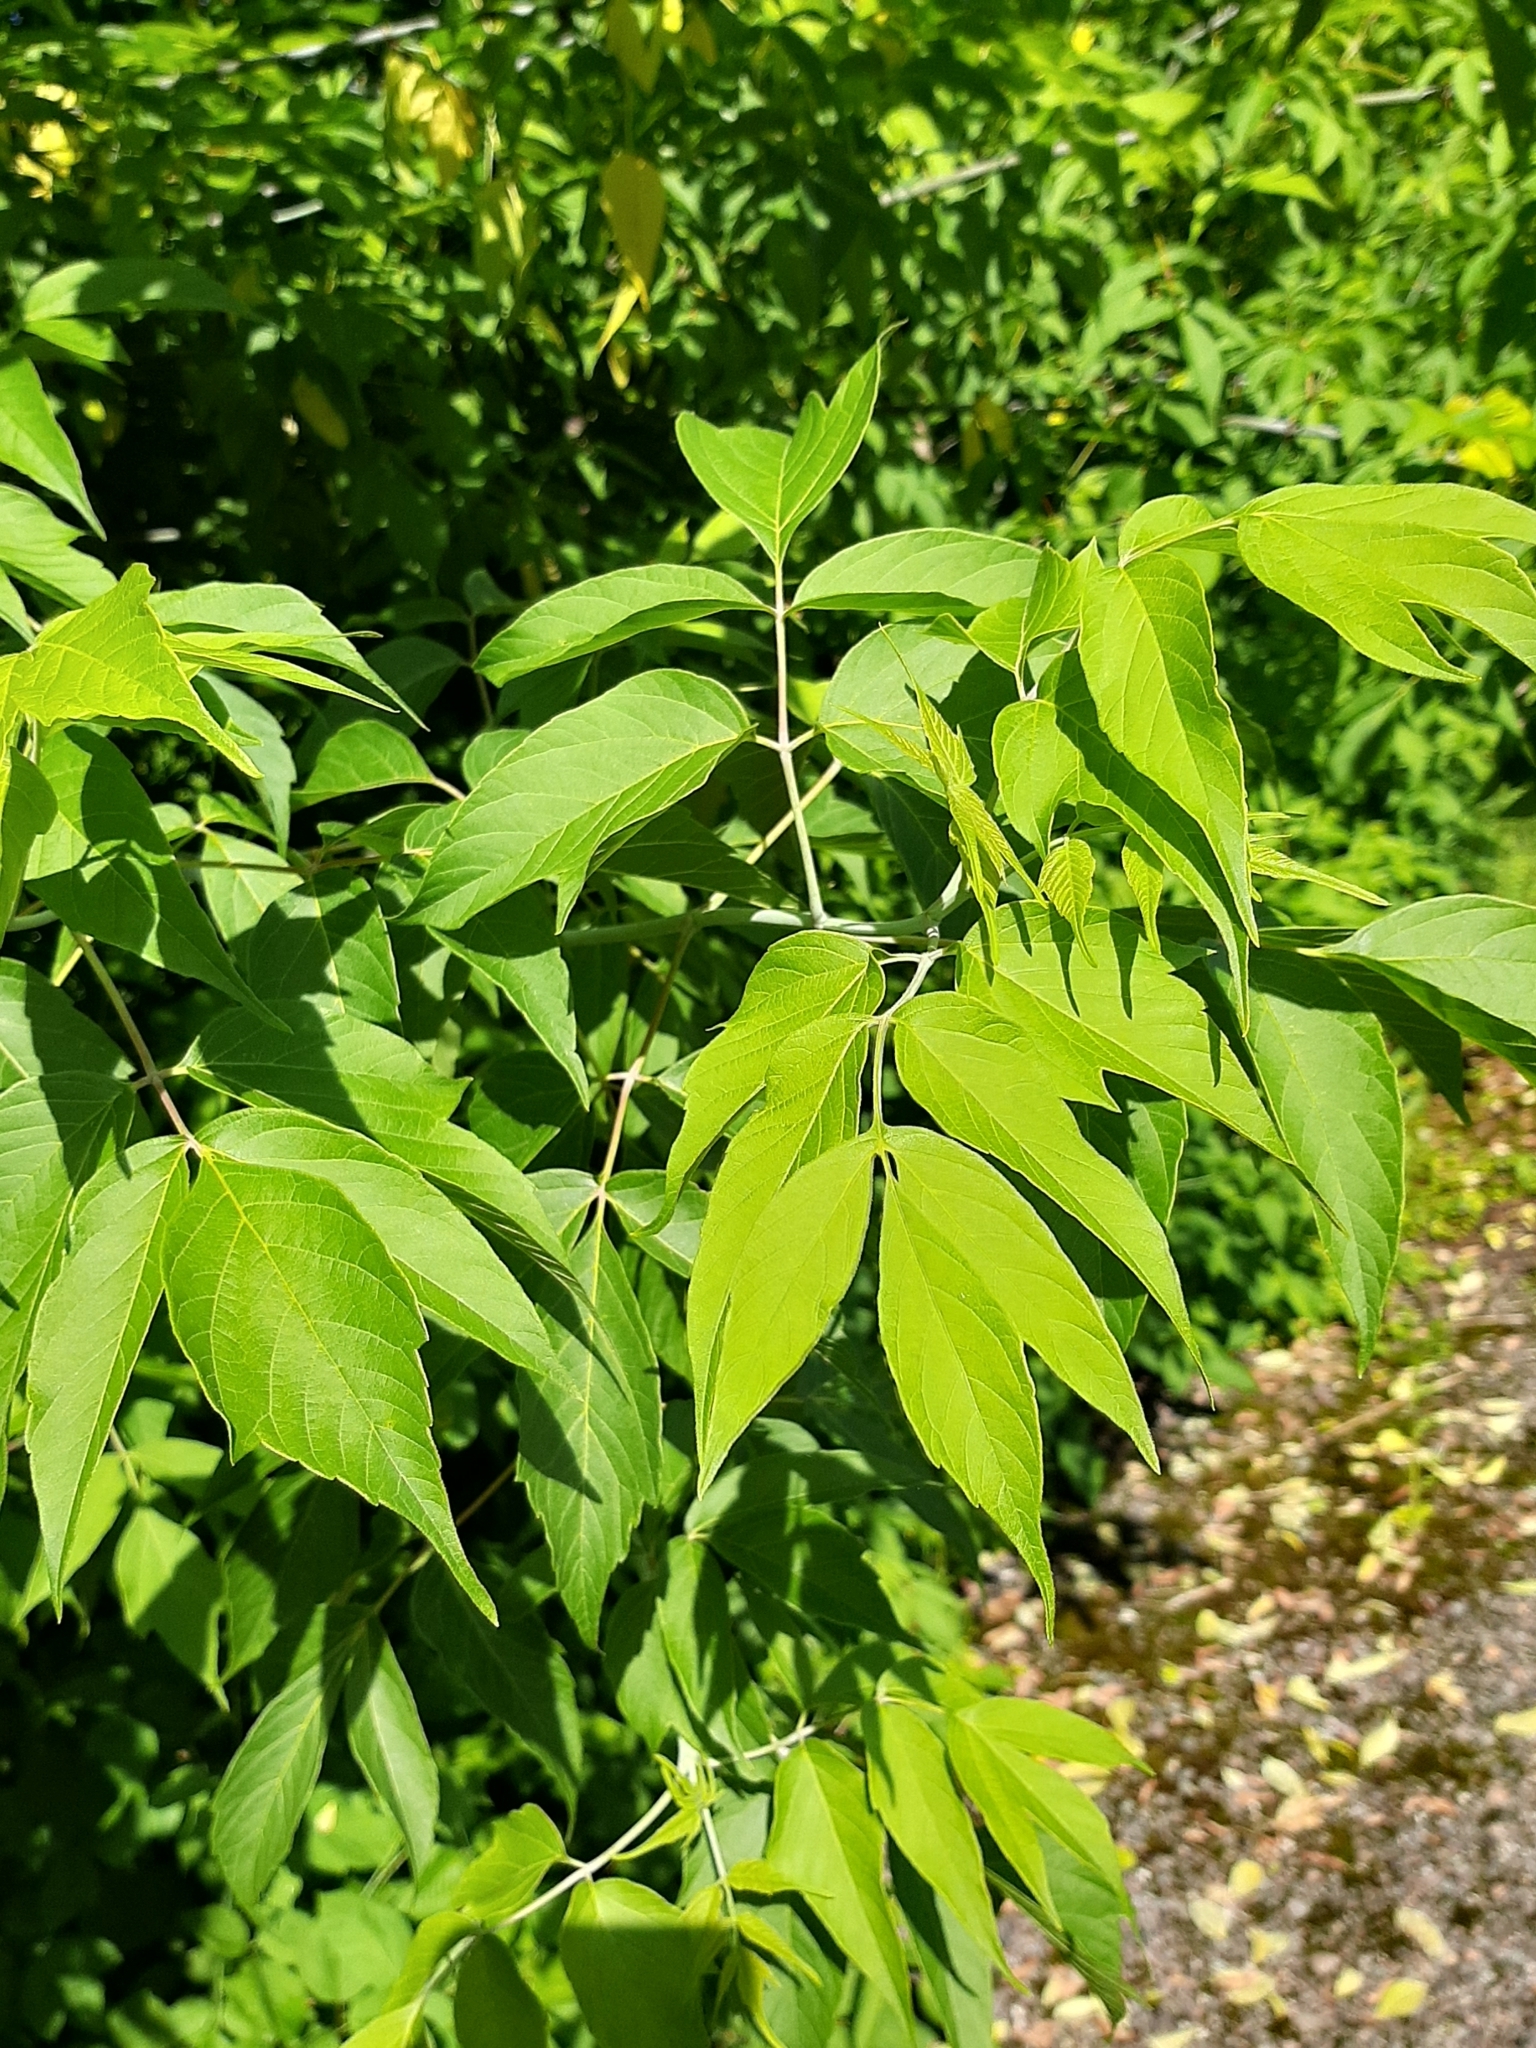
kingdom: Plantae
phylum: Tracheophyta
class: Magnoliopsida
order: Sapindales
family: Sapindaceae
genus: Acer
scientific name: Acer negundo
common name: Ashleaf maple
